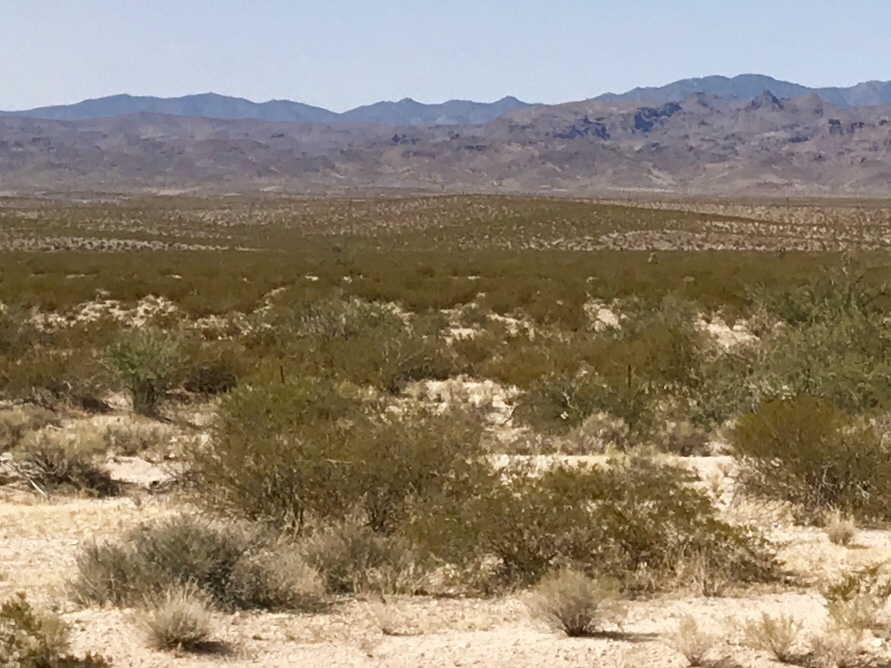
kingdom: Plantae
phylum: Tracheophyta
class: Magnoliopsida
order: Zygophyllales
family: Zygophyllaceae
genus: Larrea
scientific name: Larrea tridentata
